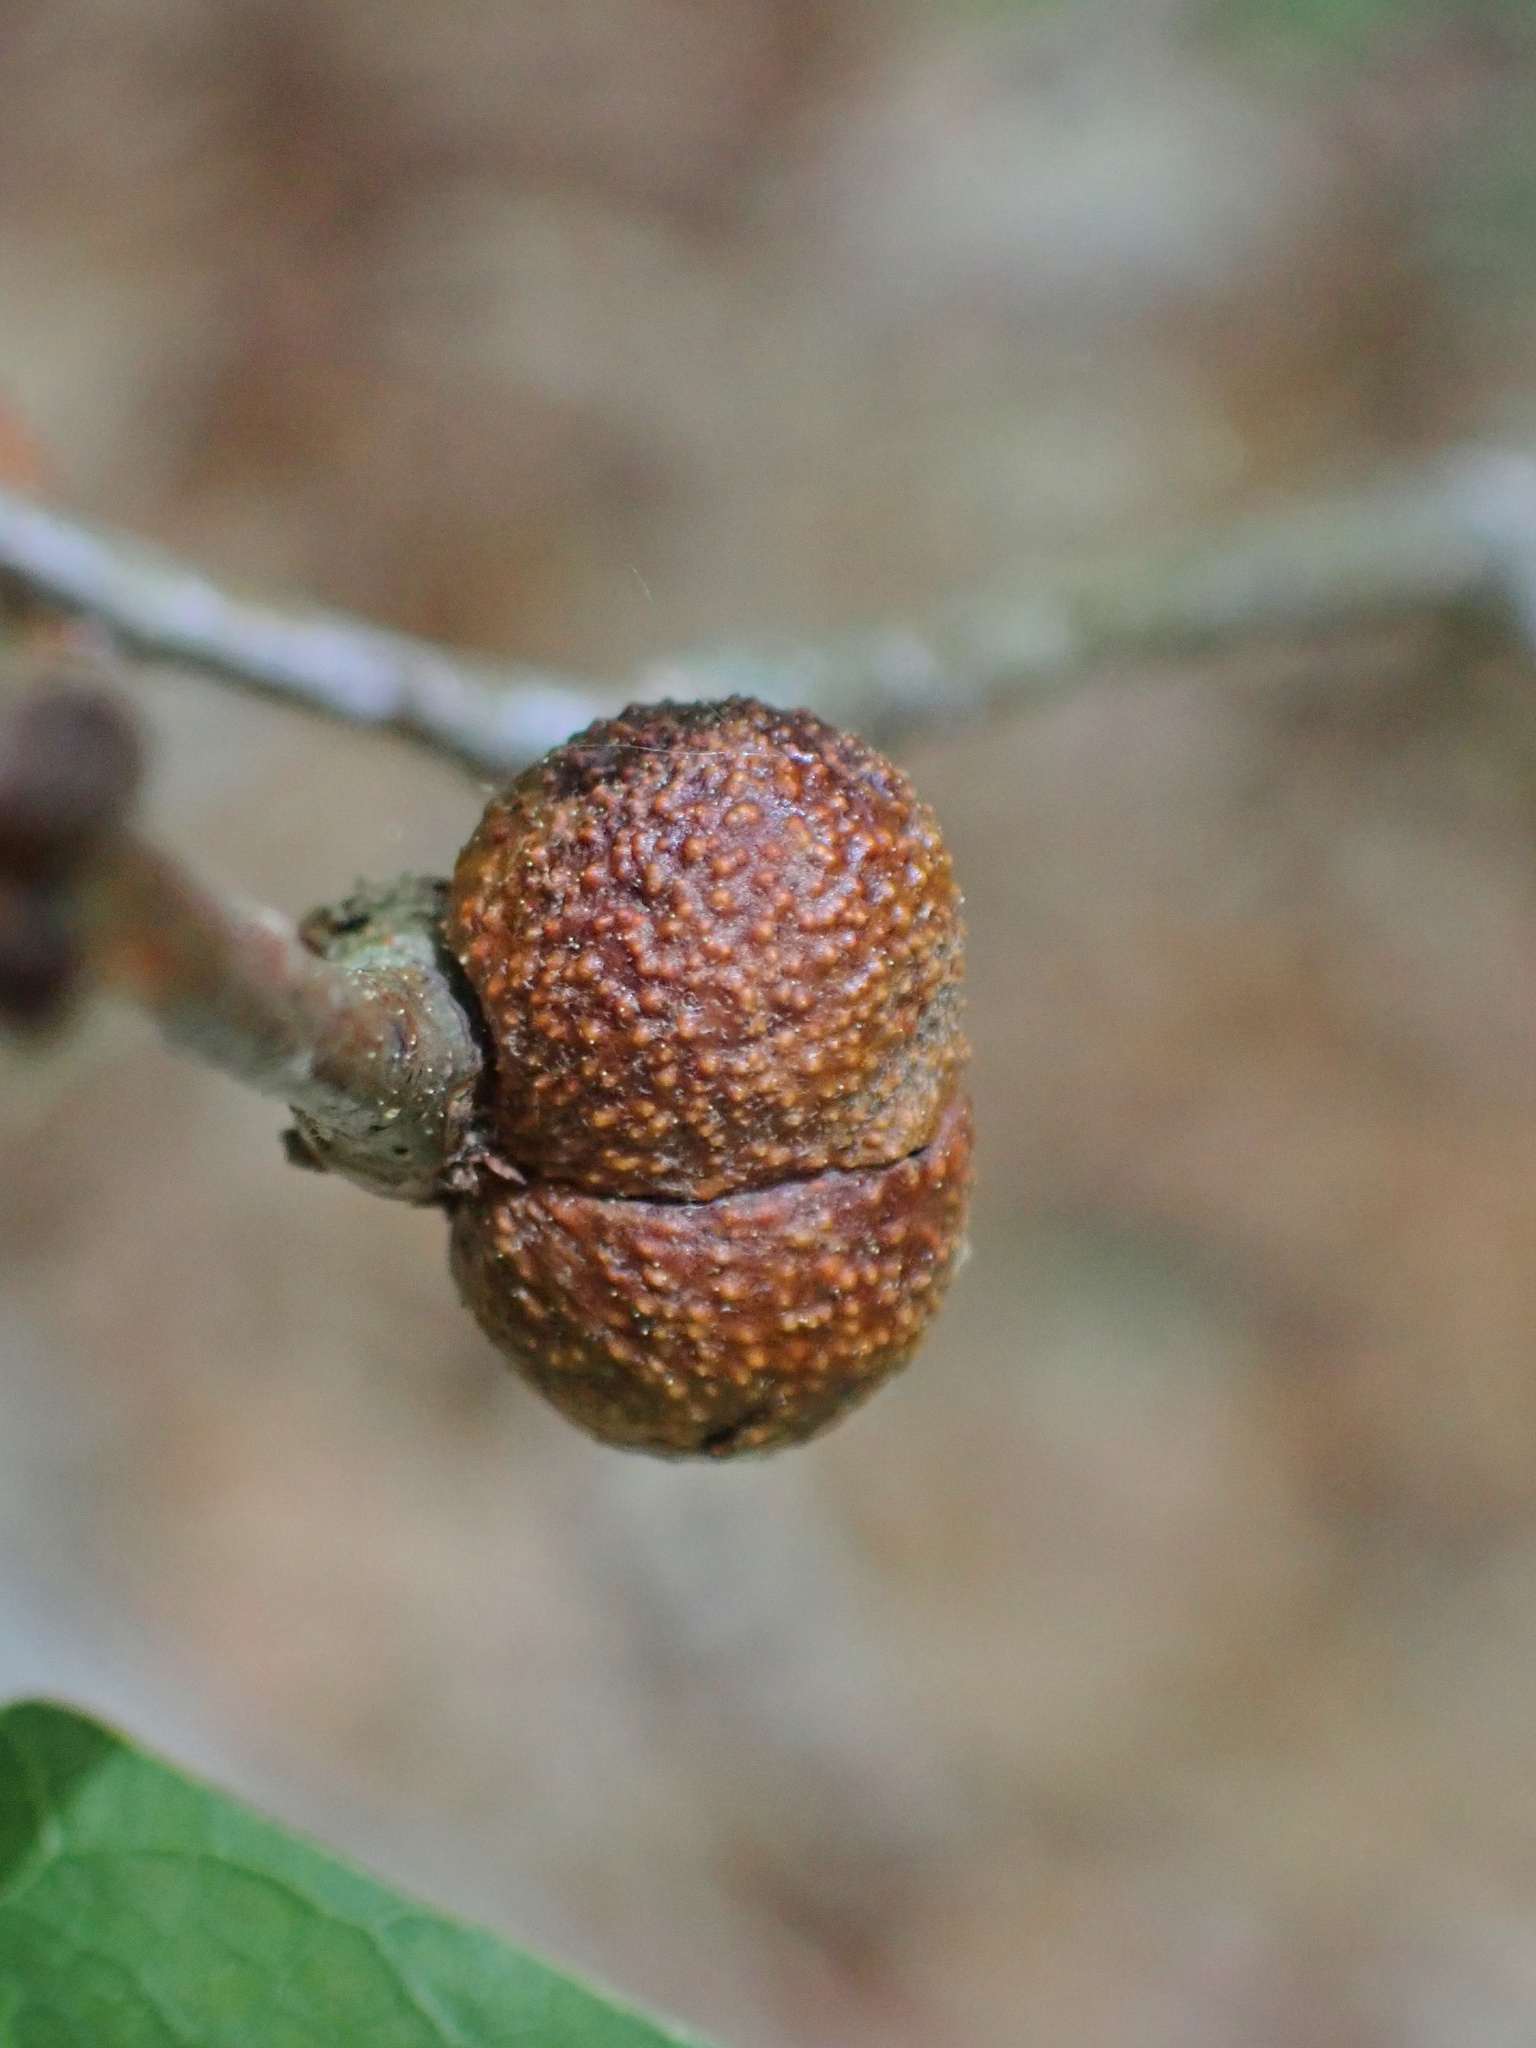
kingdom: Animalia
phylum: Arthropoda
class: Insecta
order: Hymenoptera
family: Cynipidae
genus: Disholcaspis
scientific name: Disholcaspis quercusglobulus
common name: Round bullet gall wasp
